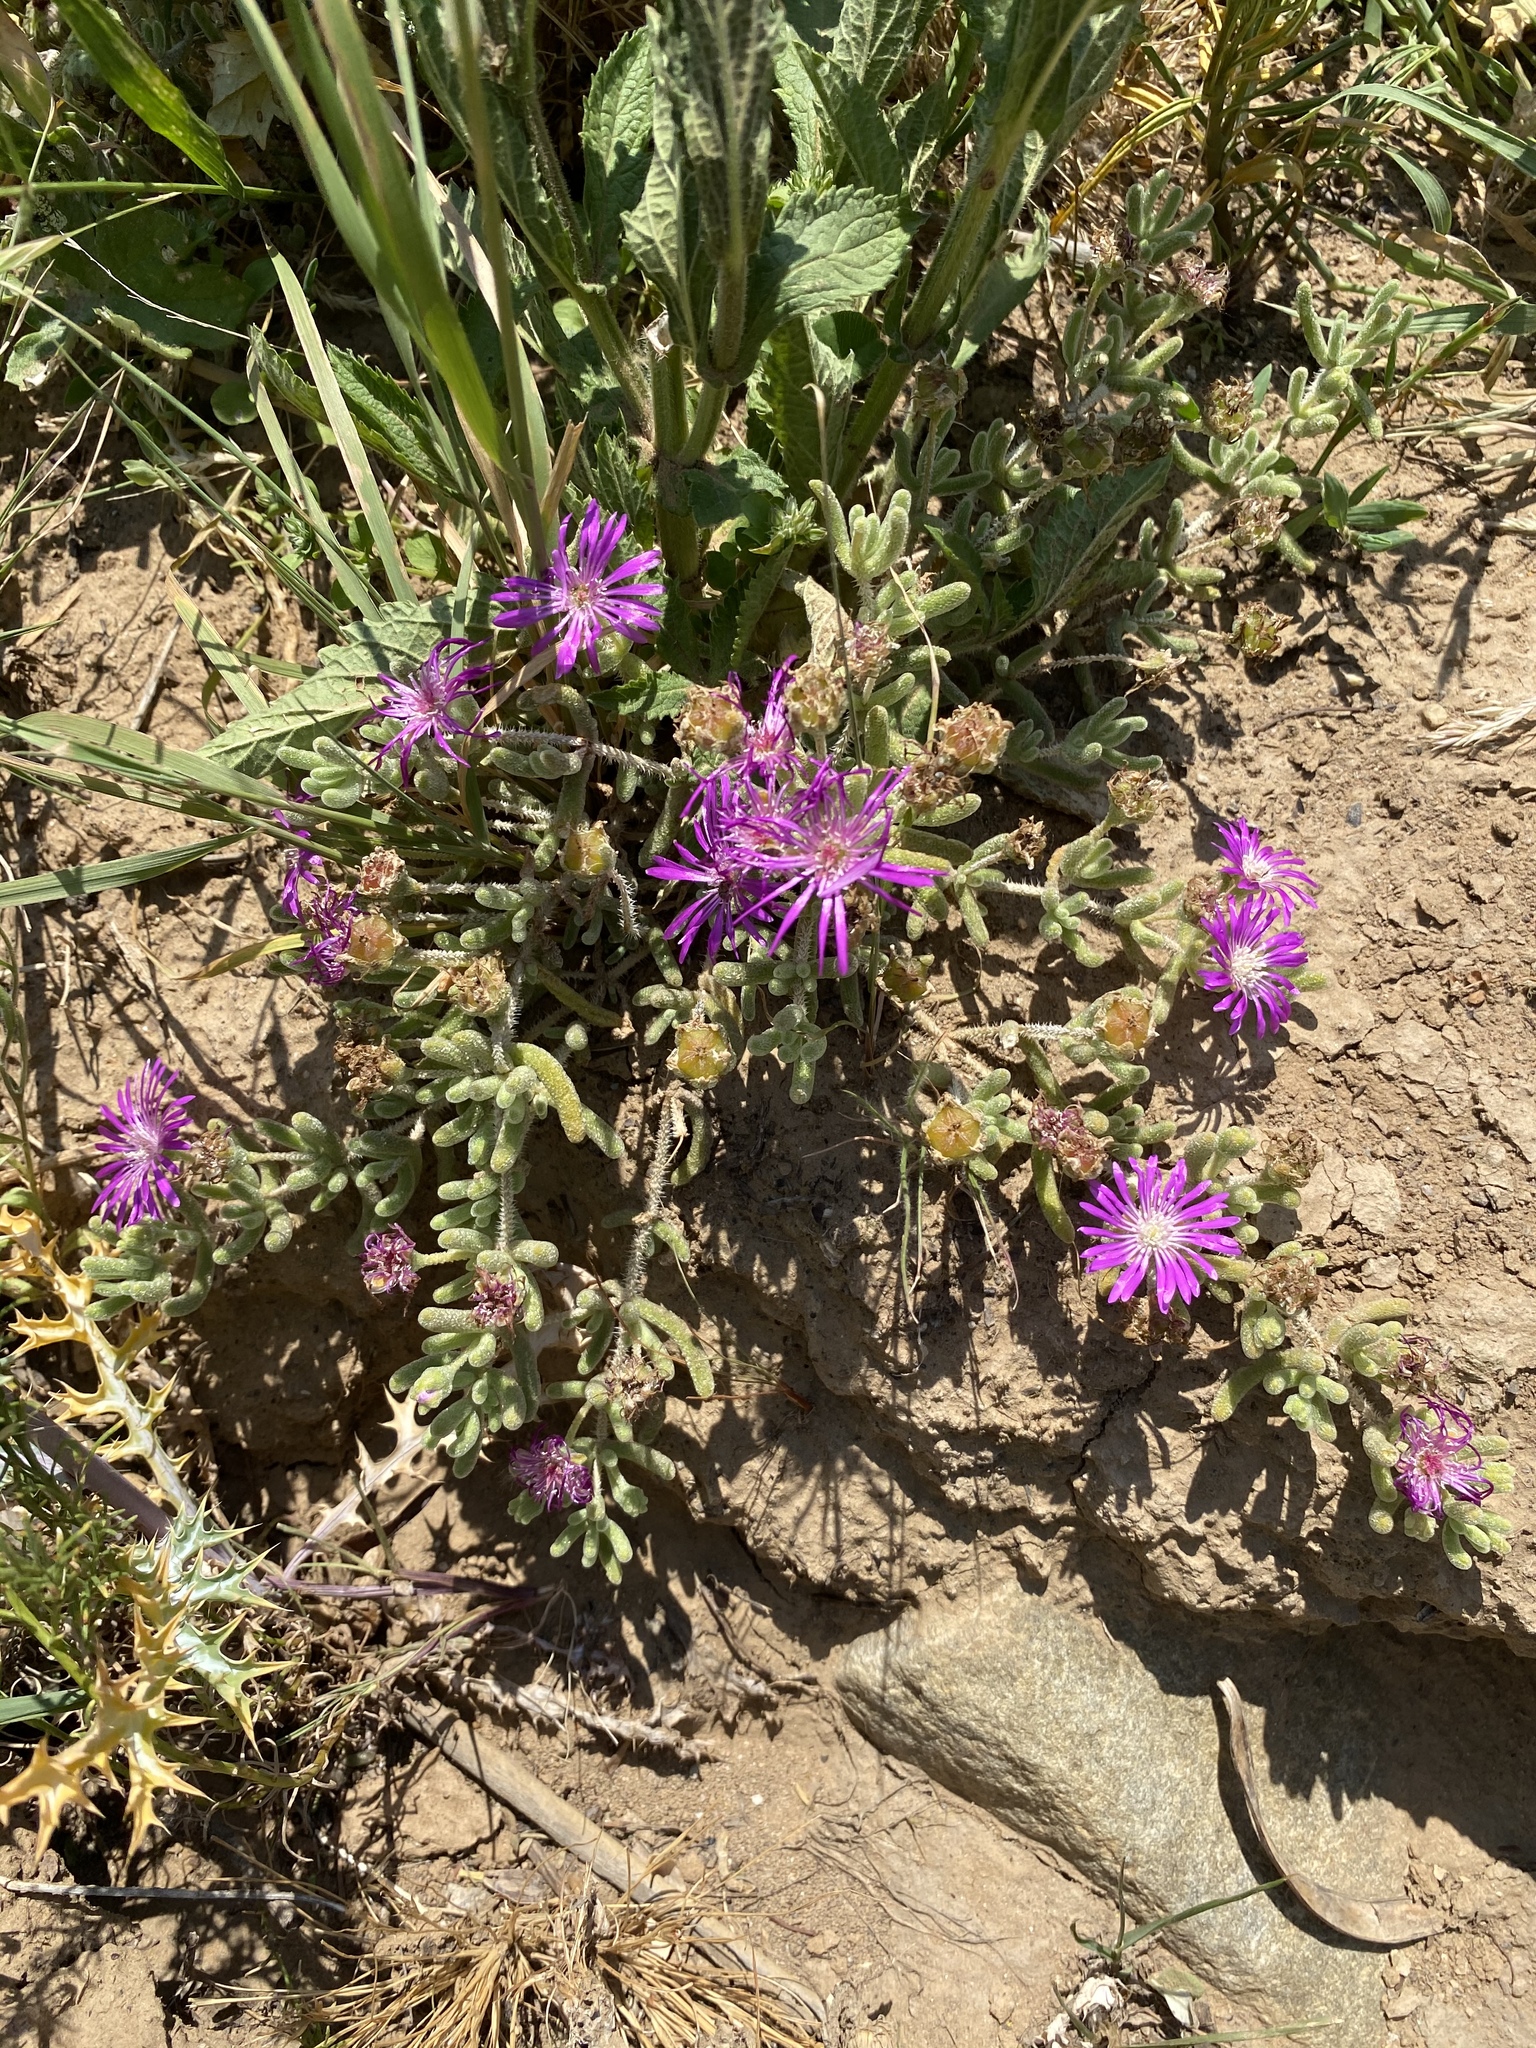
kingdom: Plantae
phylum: Tracheophyta
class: Magnoliopsida
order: Caryophyllales
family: Aizoaceae
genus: Drosanthemum
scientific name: Drosanthemum hispidum
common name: Hairy dewflower
